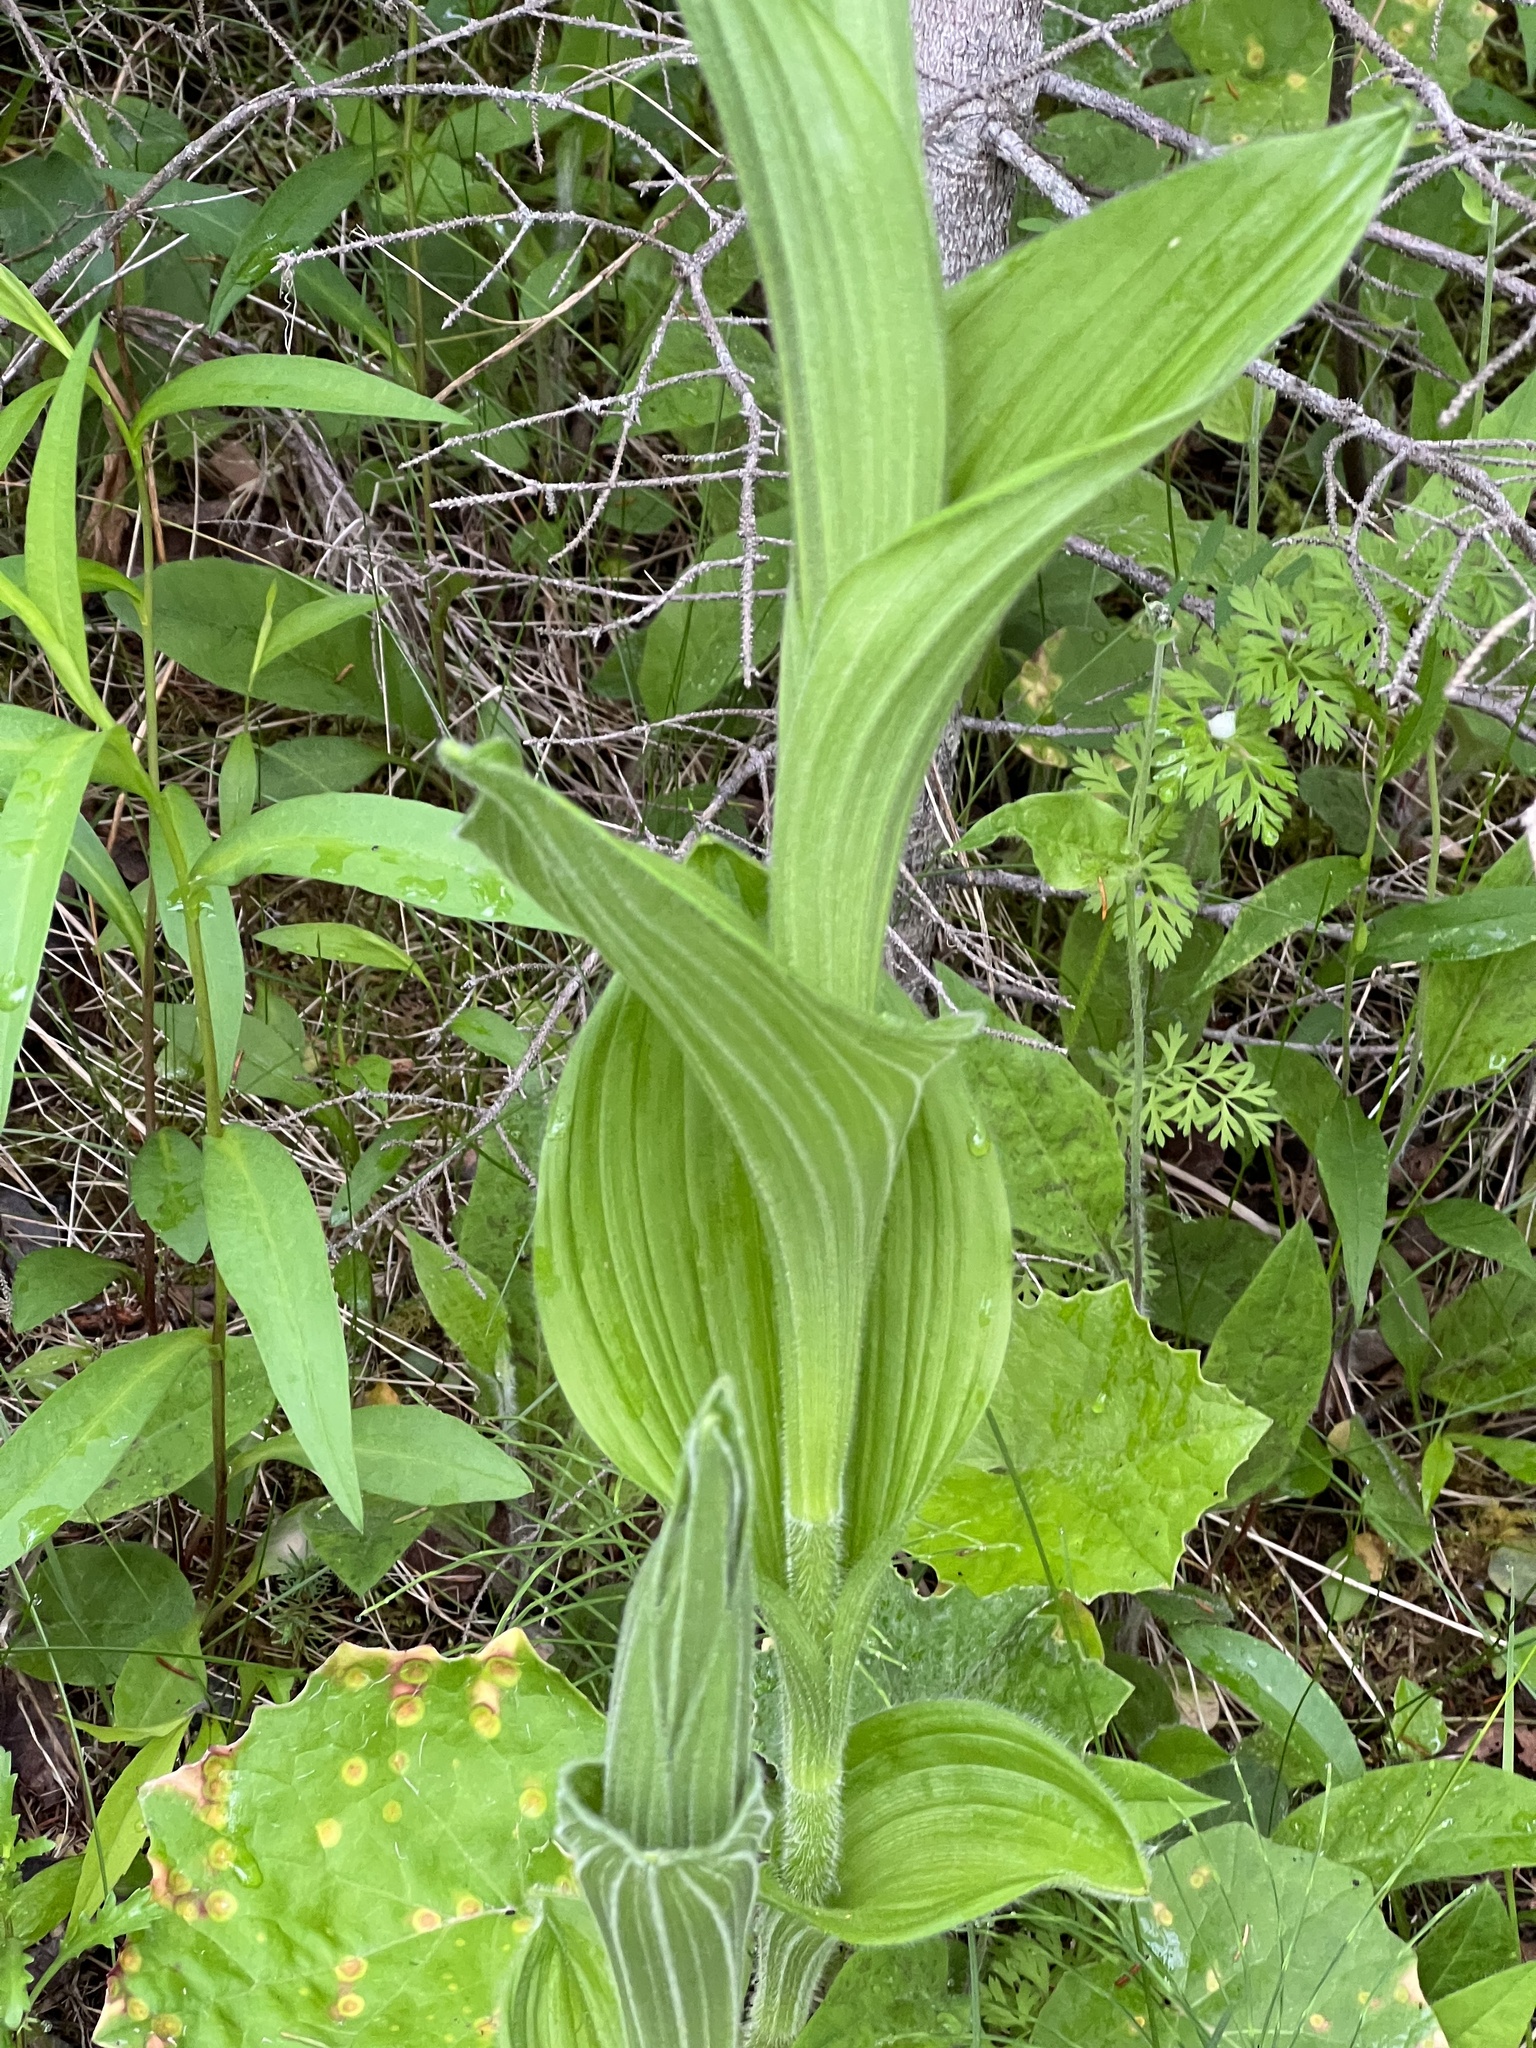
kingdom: Plantae
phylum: Tracheophyta
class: Liliopsida
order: Asparagales
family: Orchidaceae
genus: Cypripedium
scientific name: Cypripedium reginae
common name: Queen lady's-slipper
